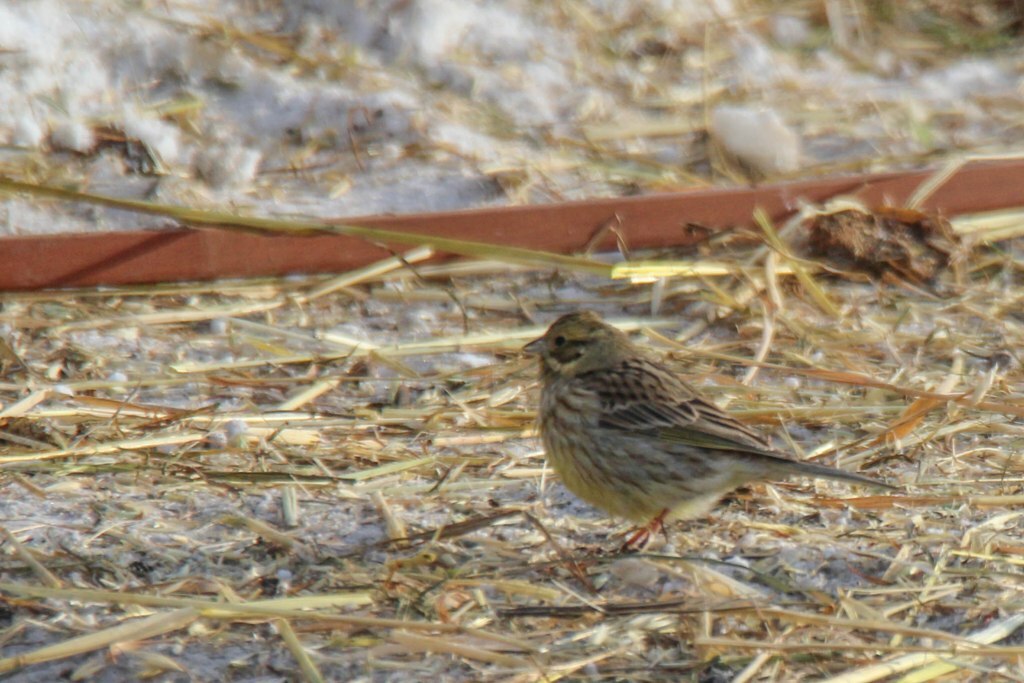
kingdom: Animalia
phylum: Chordata
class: Aves
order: Passeriformes
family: Emberizidae
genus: Emberiza
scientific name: Emberiza
